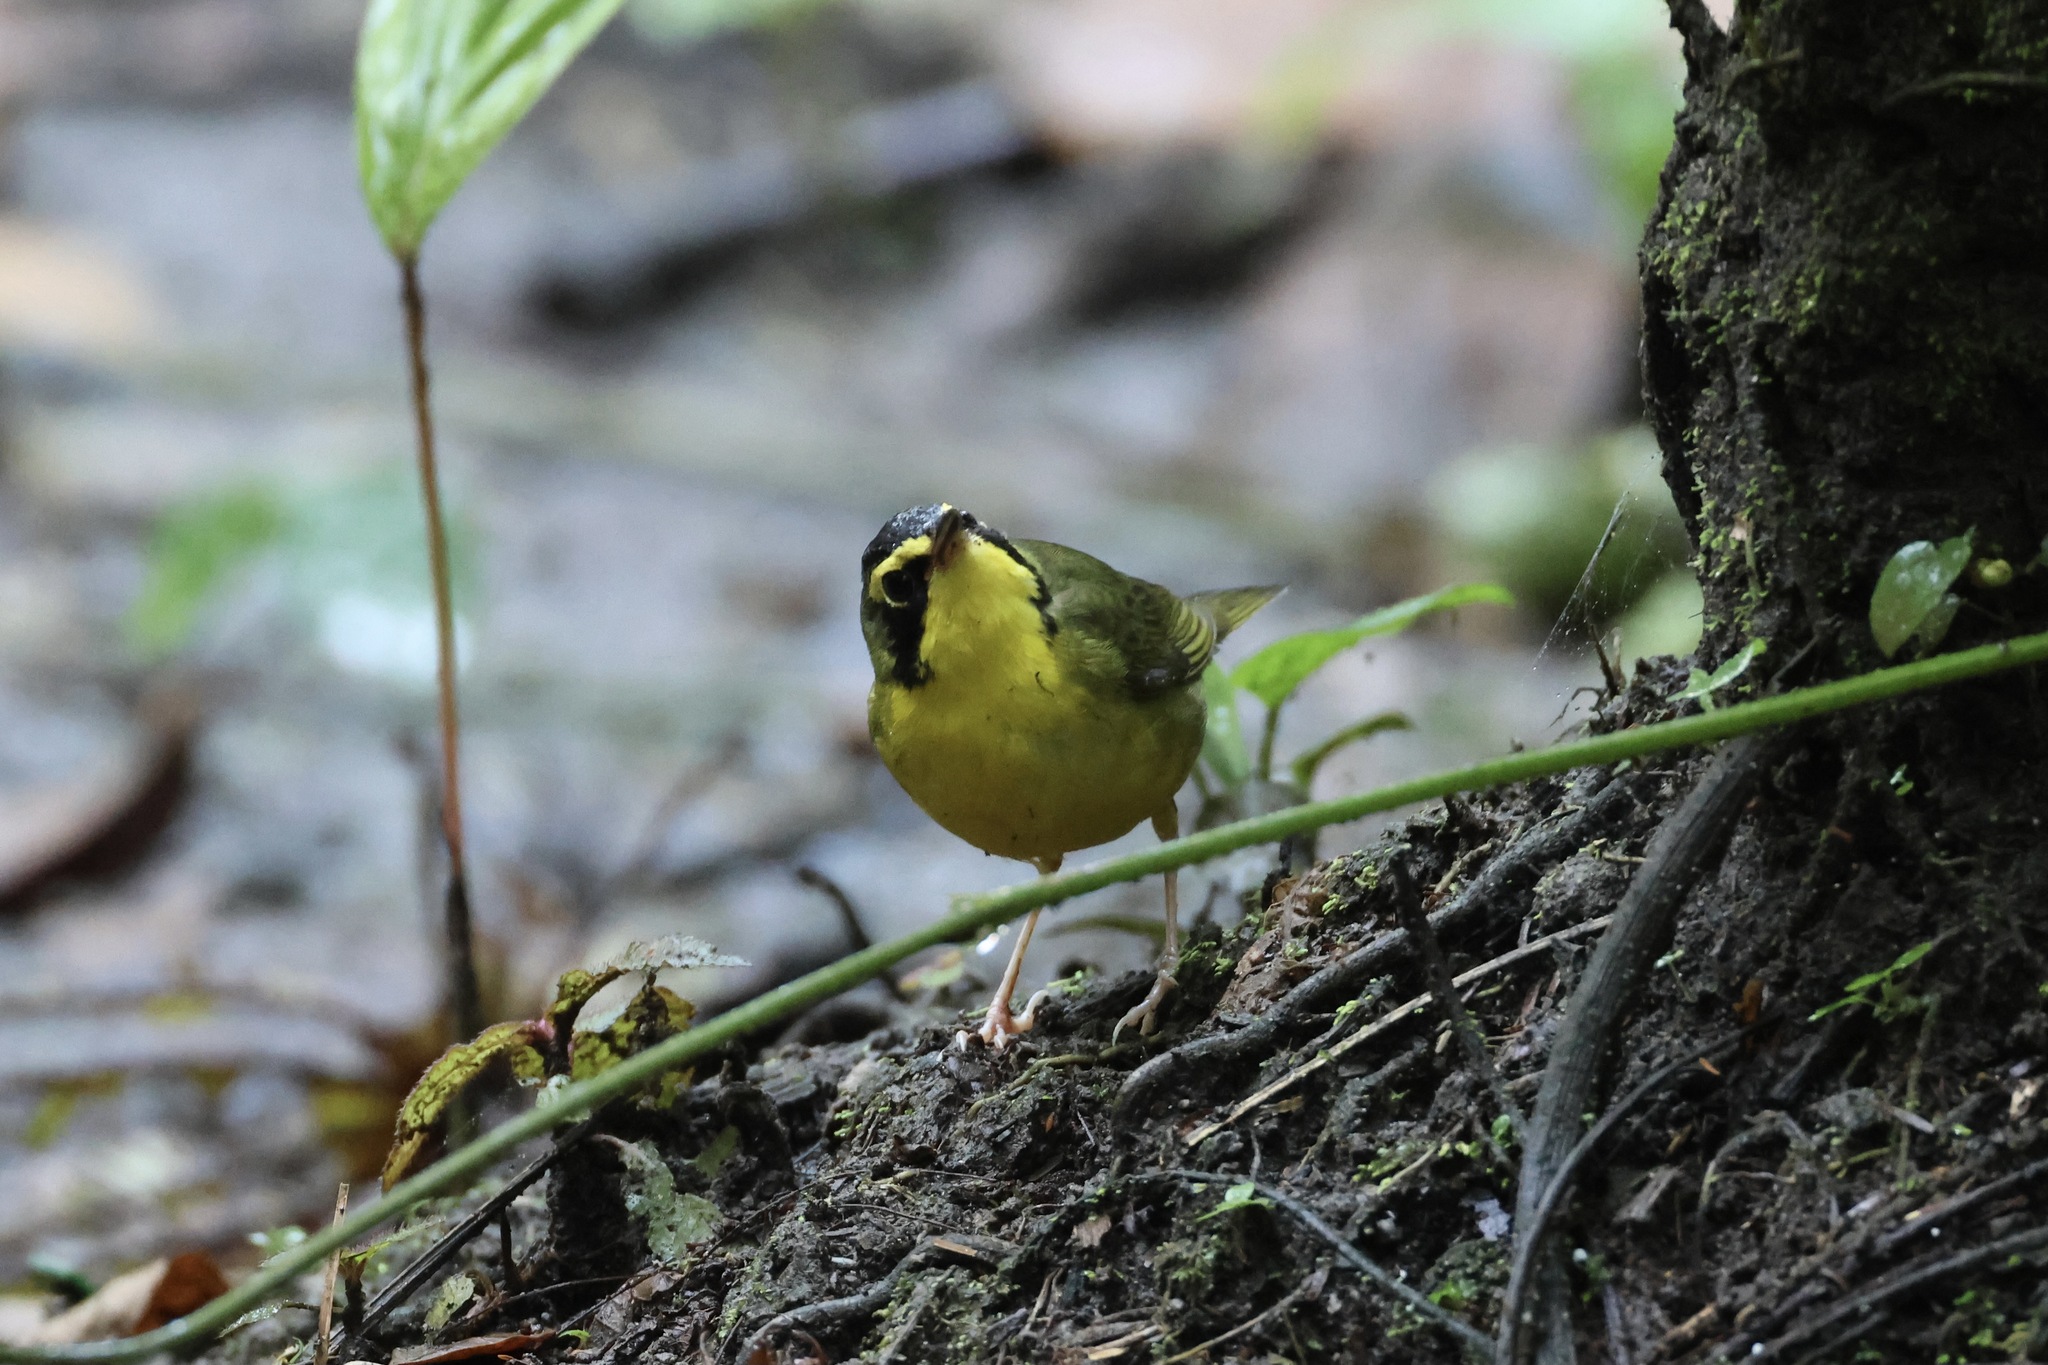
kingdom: Animalia
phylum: Chordata
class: Aves
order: Passeriformes
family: Parulidae
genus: Geothlypis
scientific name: Geothlypis formosa
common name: Kentucky warbler
